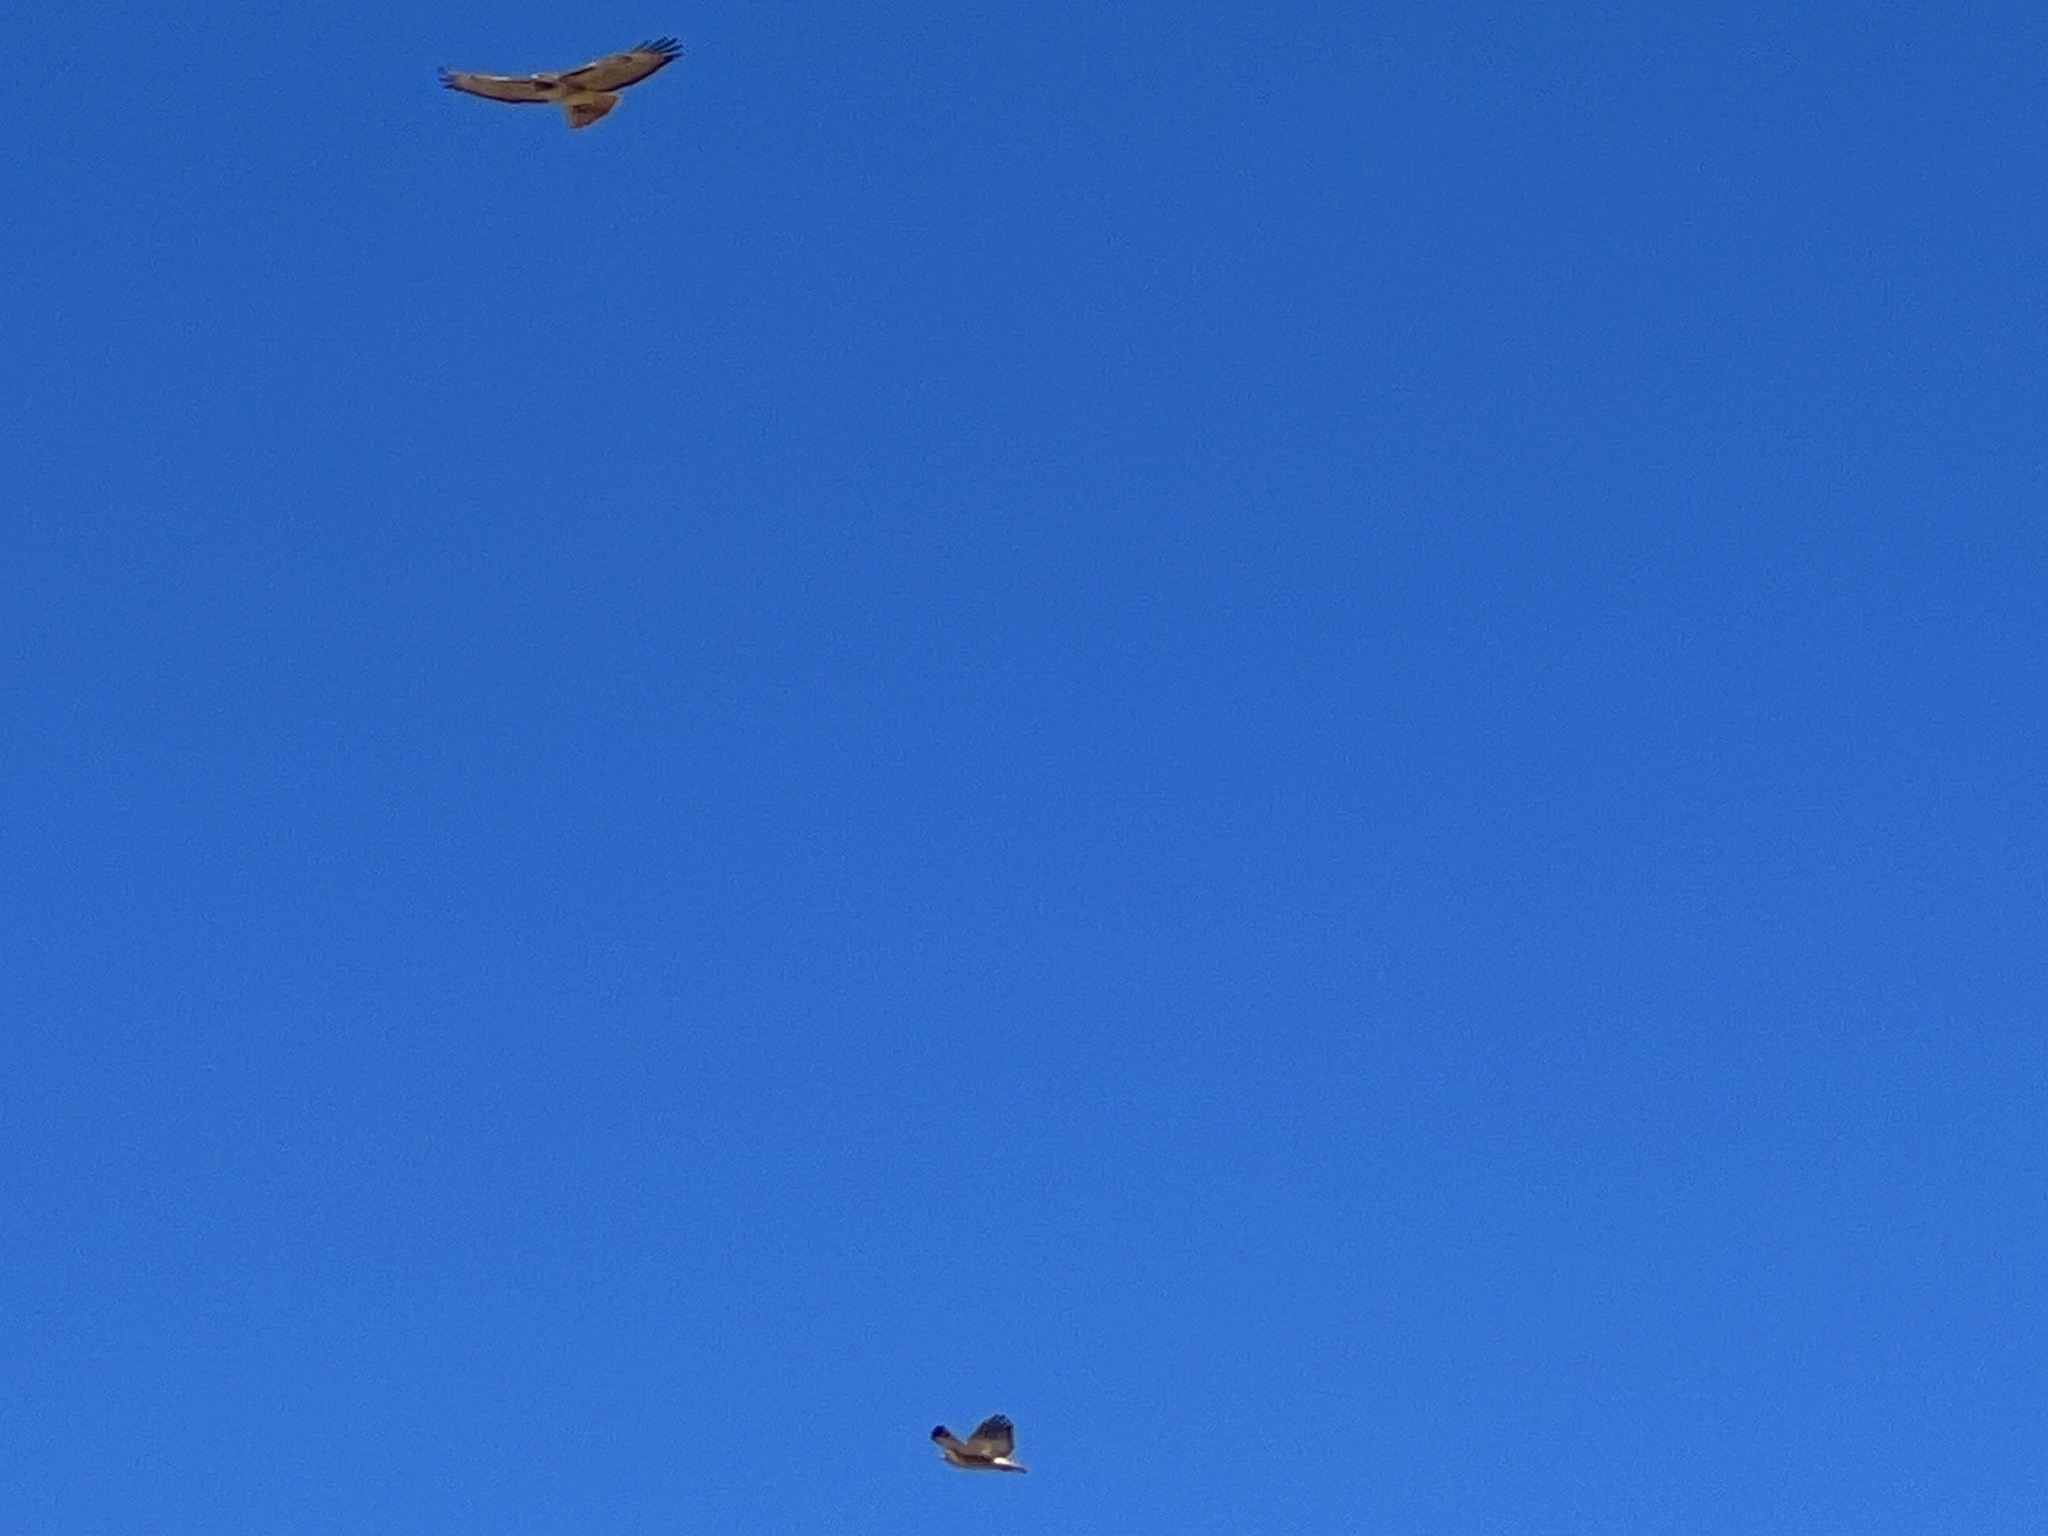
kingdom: Animalia
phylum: Chordata
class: Aves
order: Accipitriformes
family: Accipitridae
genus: Buteo
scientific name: Buteo jamaicensis
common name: Red-tailed hawk
